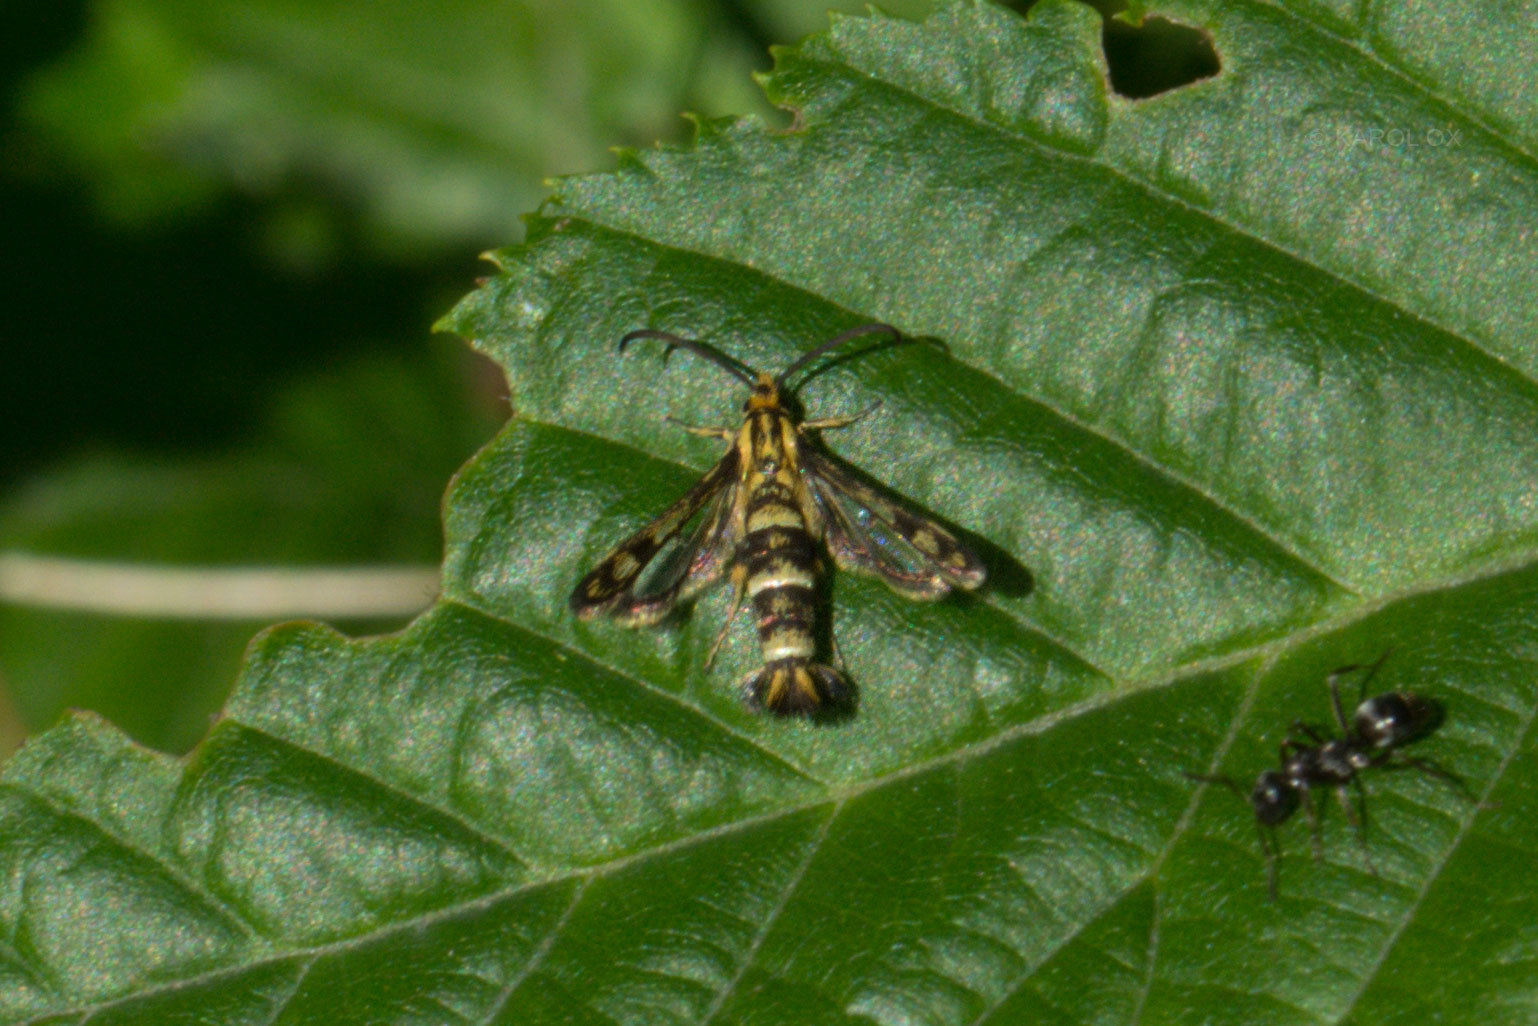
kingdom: Animalia
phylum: Arthropoda
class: Insecta
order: Lepidoptera
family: Sesiidae
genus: Chamaesphecia
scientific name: Chamaesphecia empiformis
